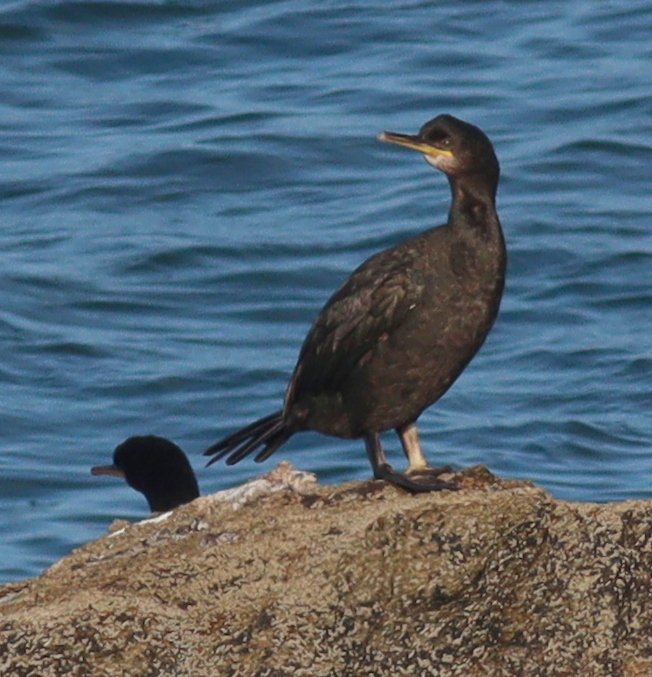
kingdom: Animalia
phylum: Chordata
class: Aves
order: Suliformes
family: Phalacrocoracidae
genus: Phalacrocorax
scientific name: Phalacrocorax aristotelis
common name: European shag
